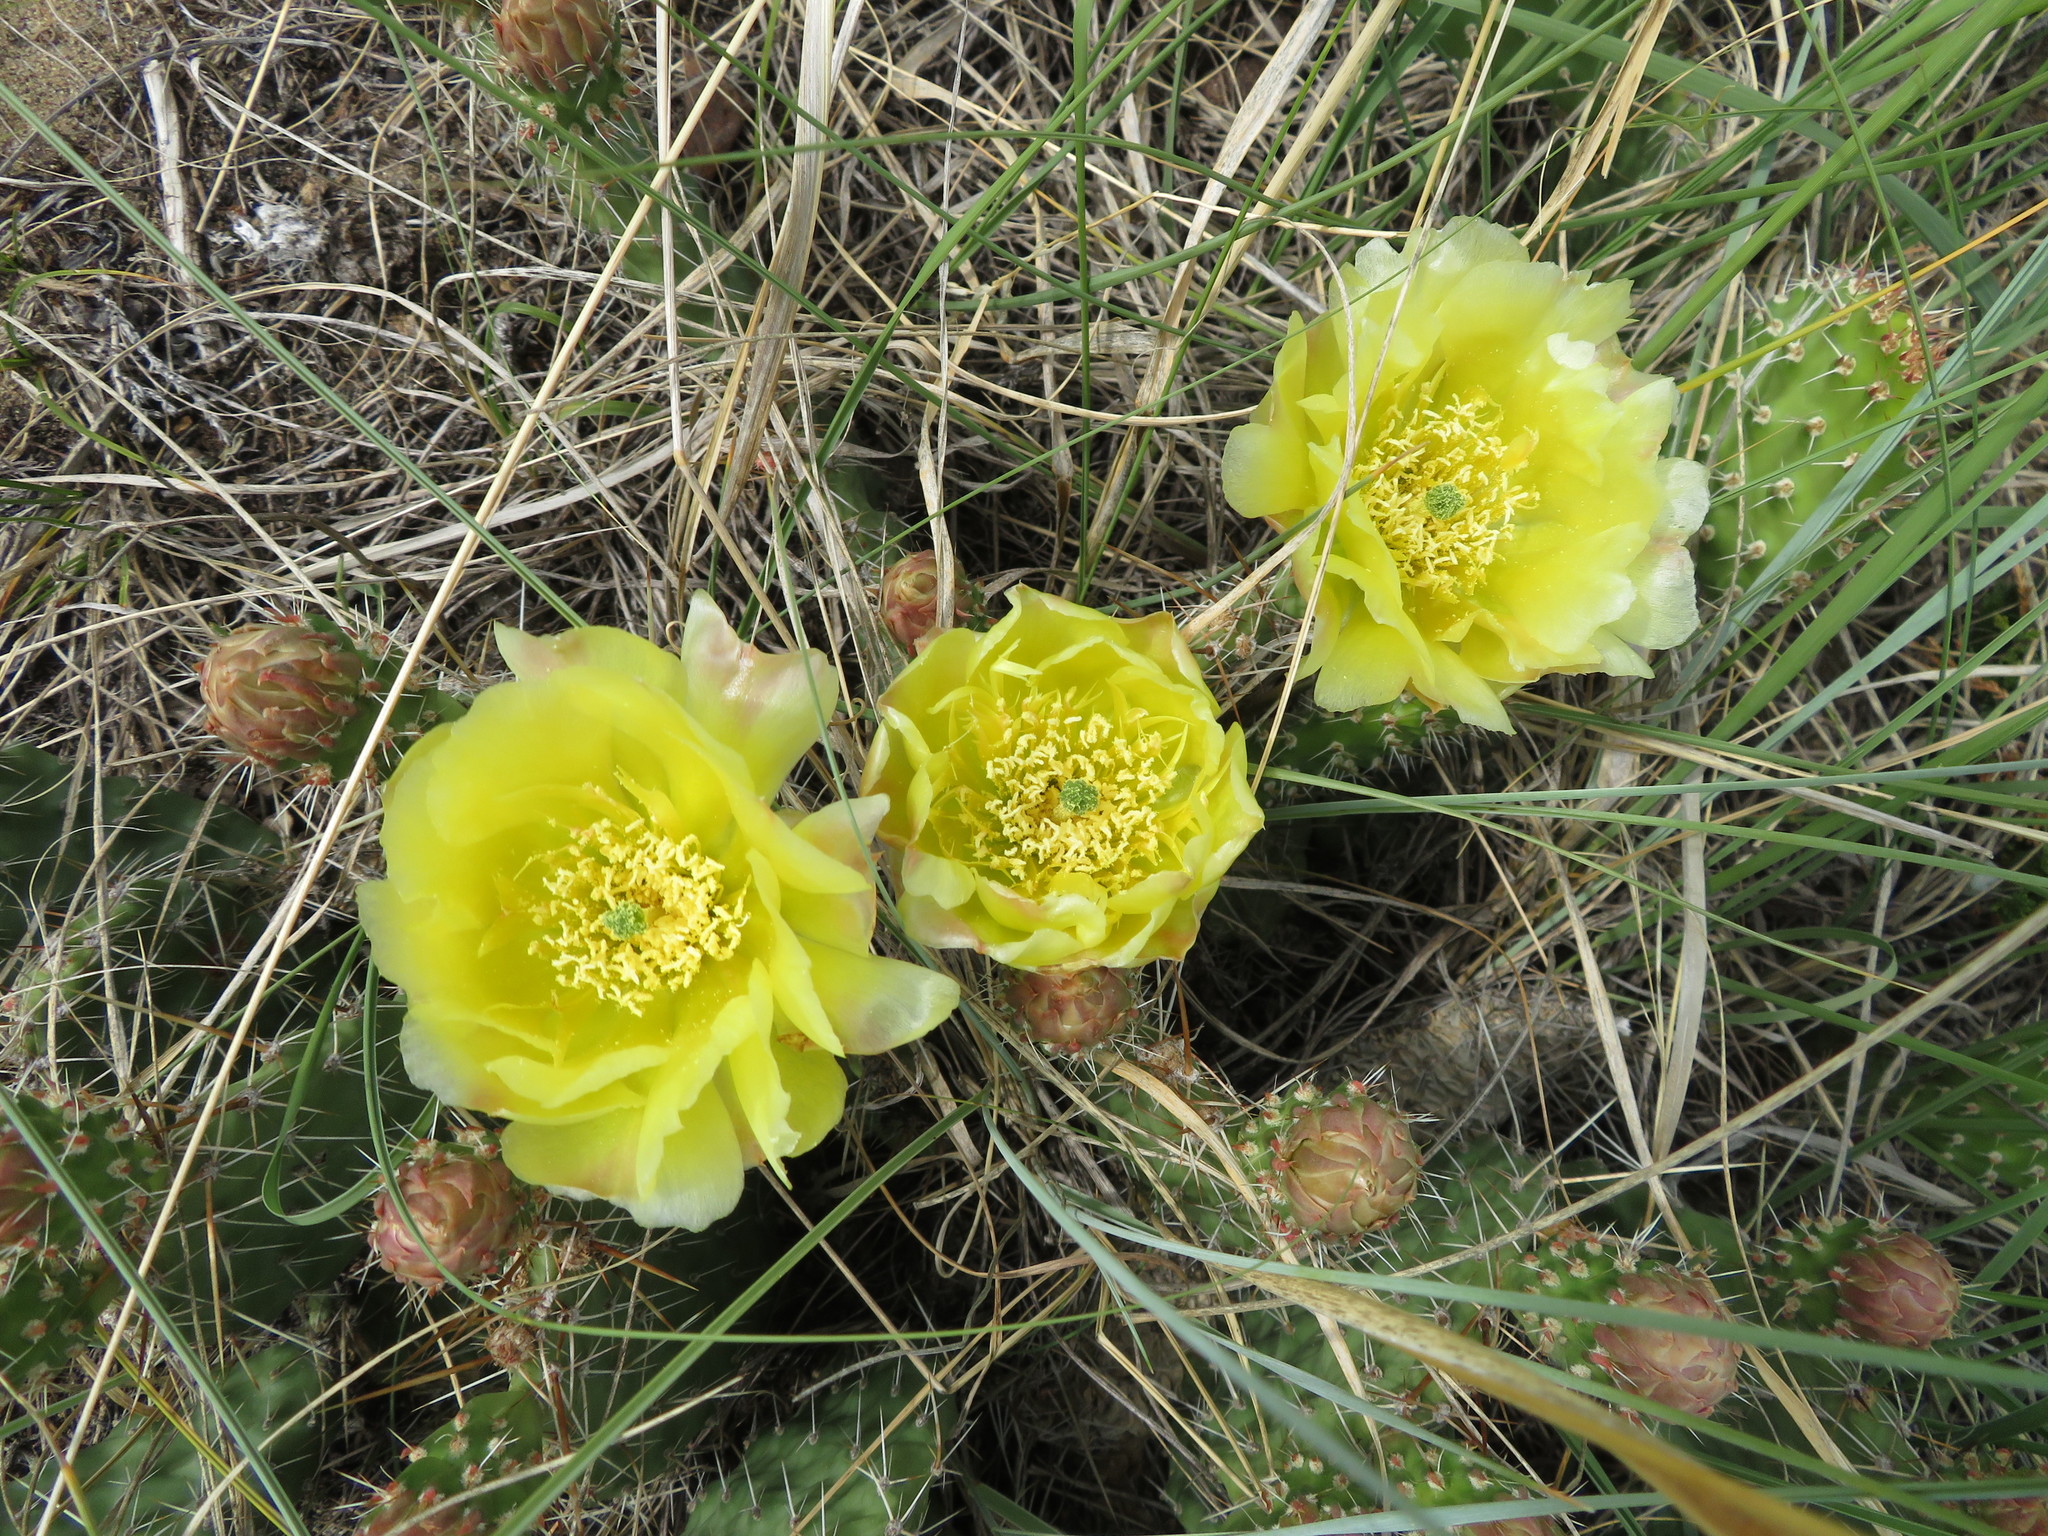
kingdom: Plantae
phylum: Tracheophyta
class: Magnoliopsida
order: Caryophyllales
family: Cactaceae
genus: Opuntia
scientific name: Opuntia polyacantha
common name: Plains prickly-pear
